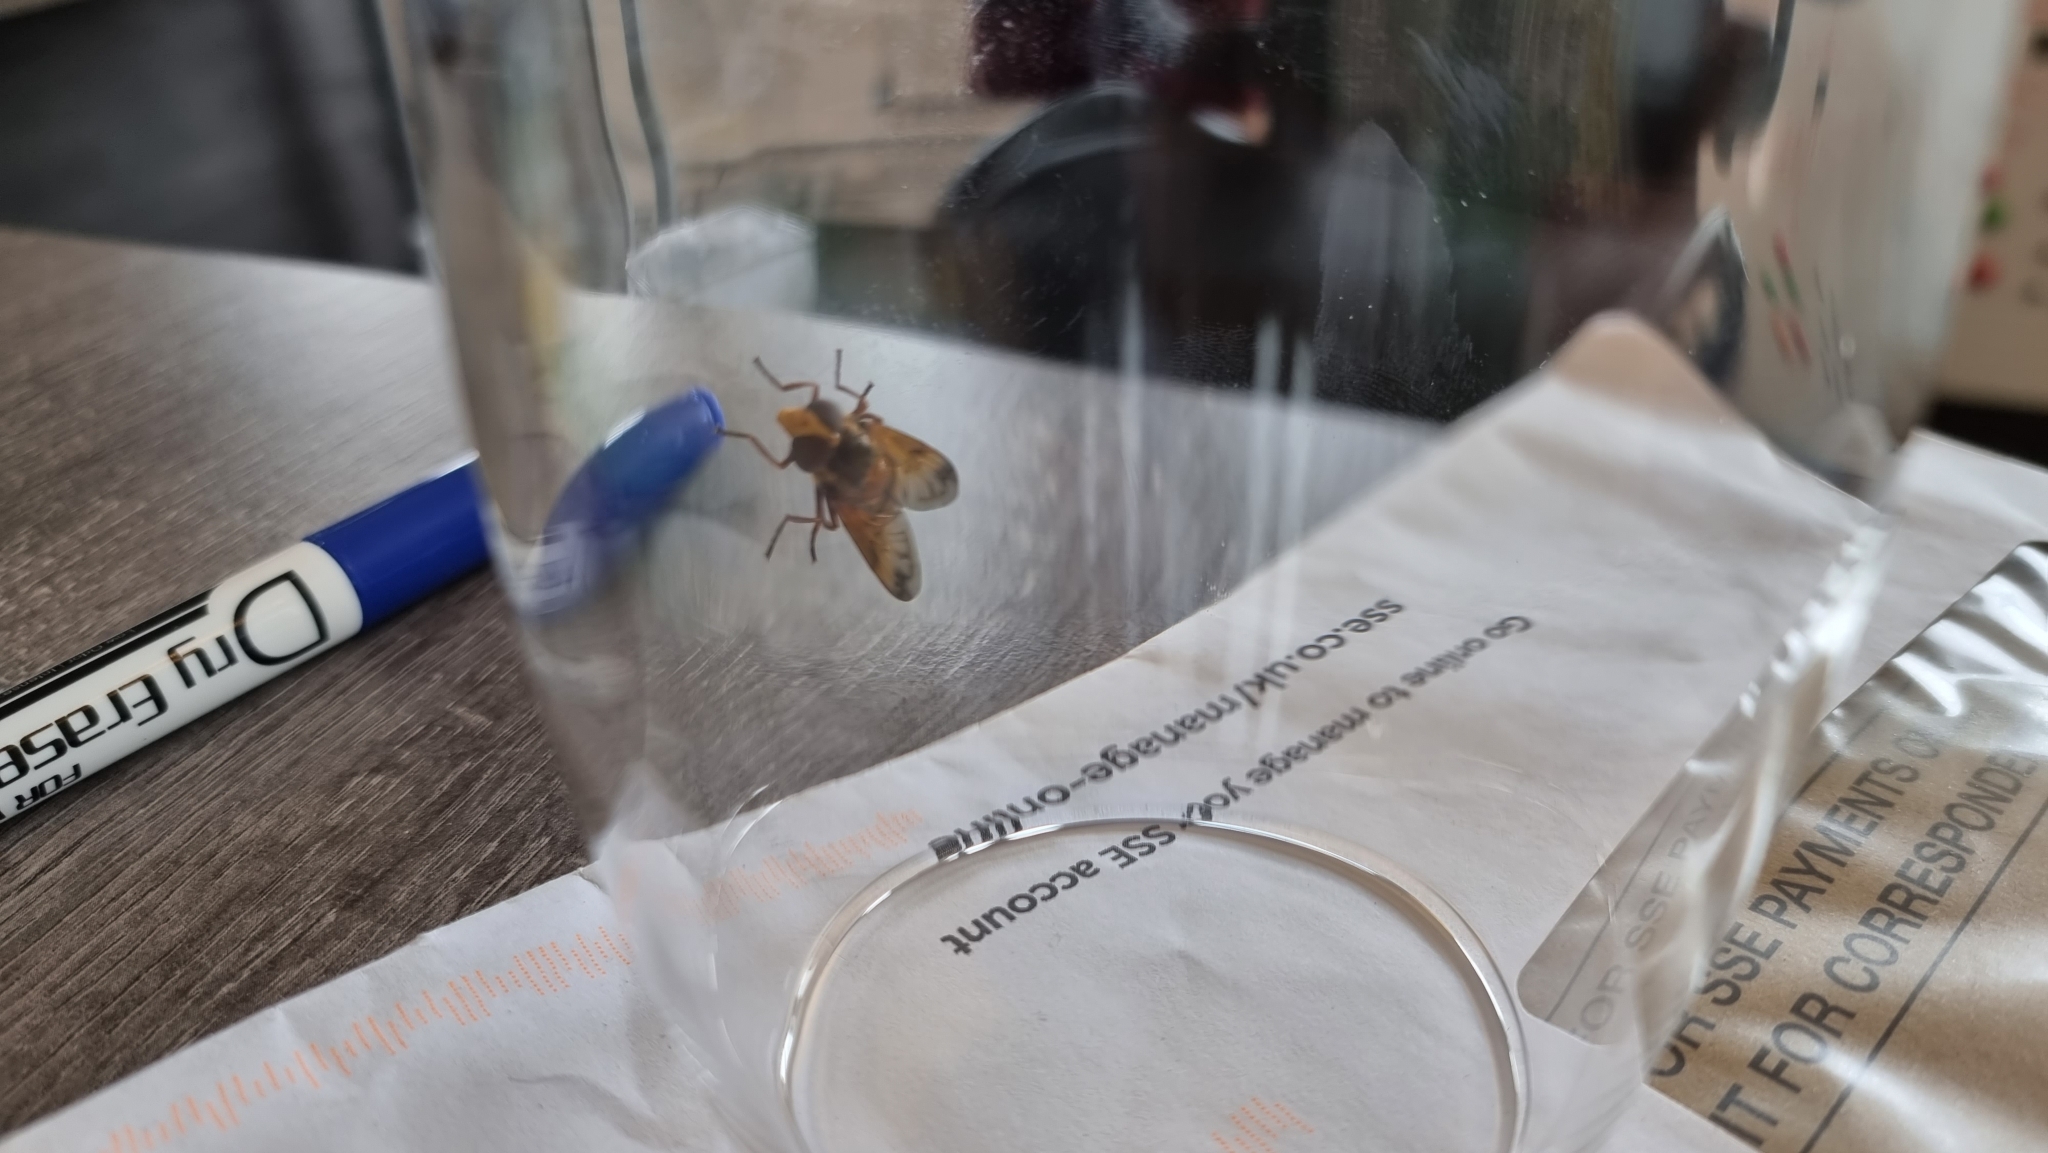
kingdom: Animalia
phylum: Arthropoda
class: Insecta
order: Diptera
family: Syrphidae
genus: Volucella
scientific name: Volucella inanis
